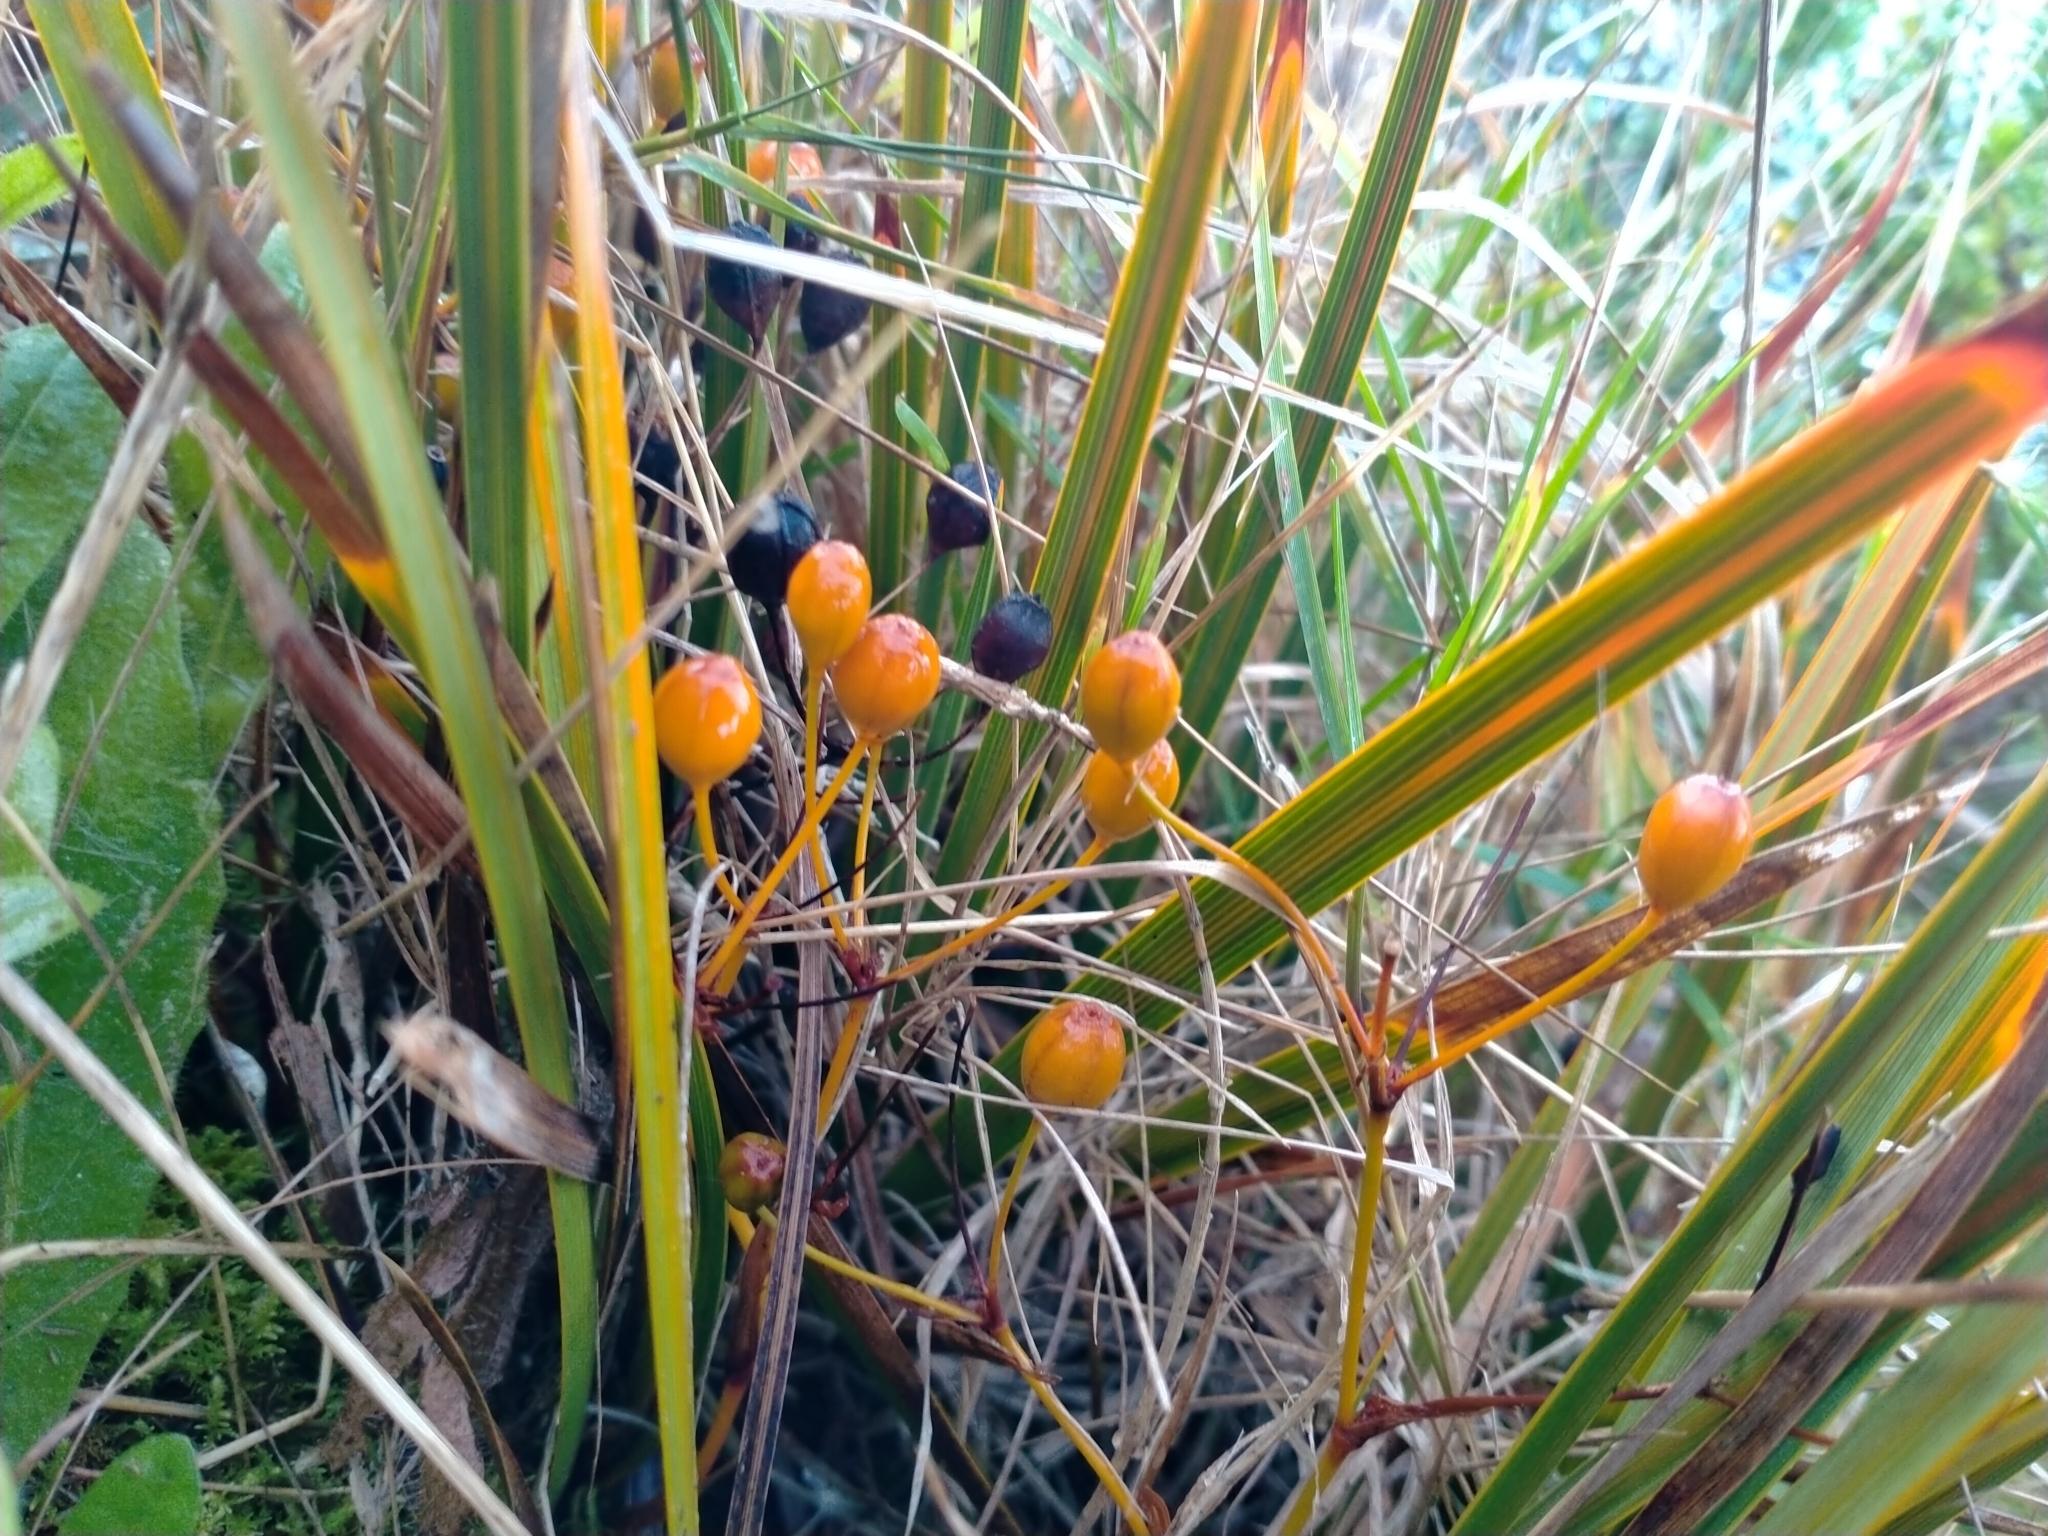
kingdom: Plantae
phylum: Tracheophyta
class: Liliopsida
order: Asparagales
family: Iridaceae
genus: Libertia
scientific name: Libertia peregrinans
